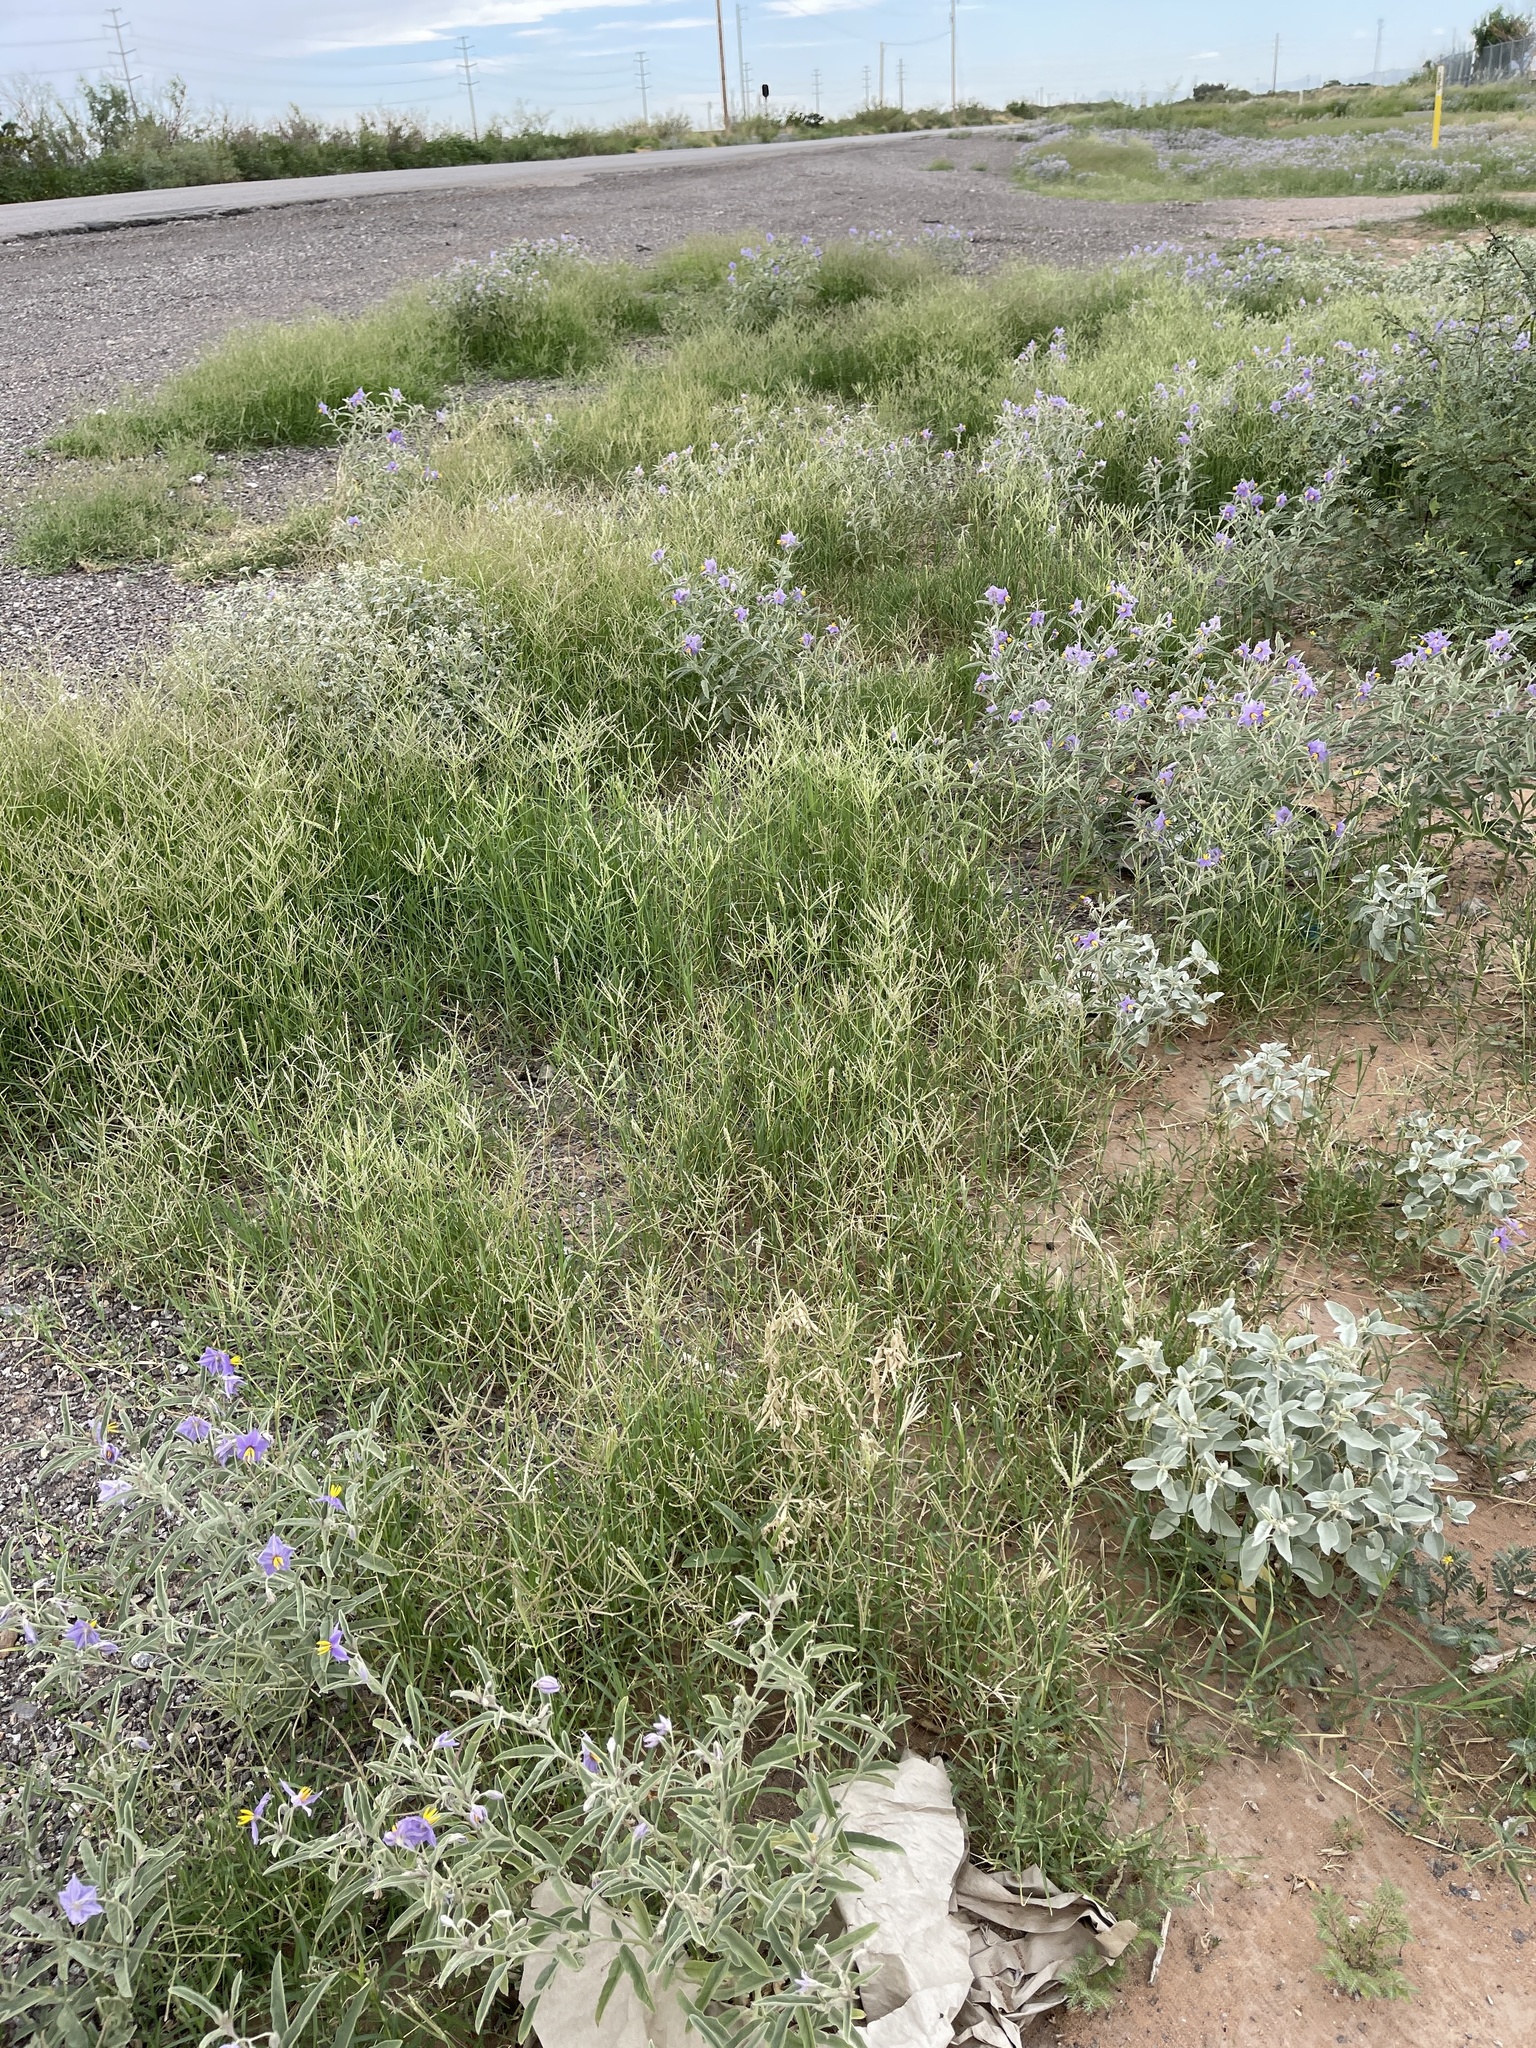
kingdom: Plantae
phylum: Tracheophyta
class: Liliopsida
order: Poales
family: Poaceae
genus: Cynodon
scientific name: Cynodon dactylon
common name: Bermuda grass
